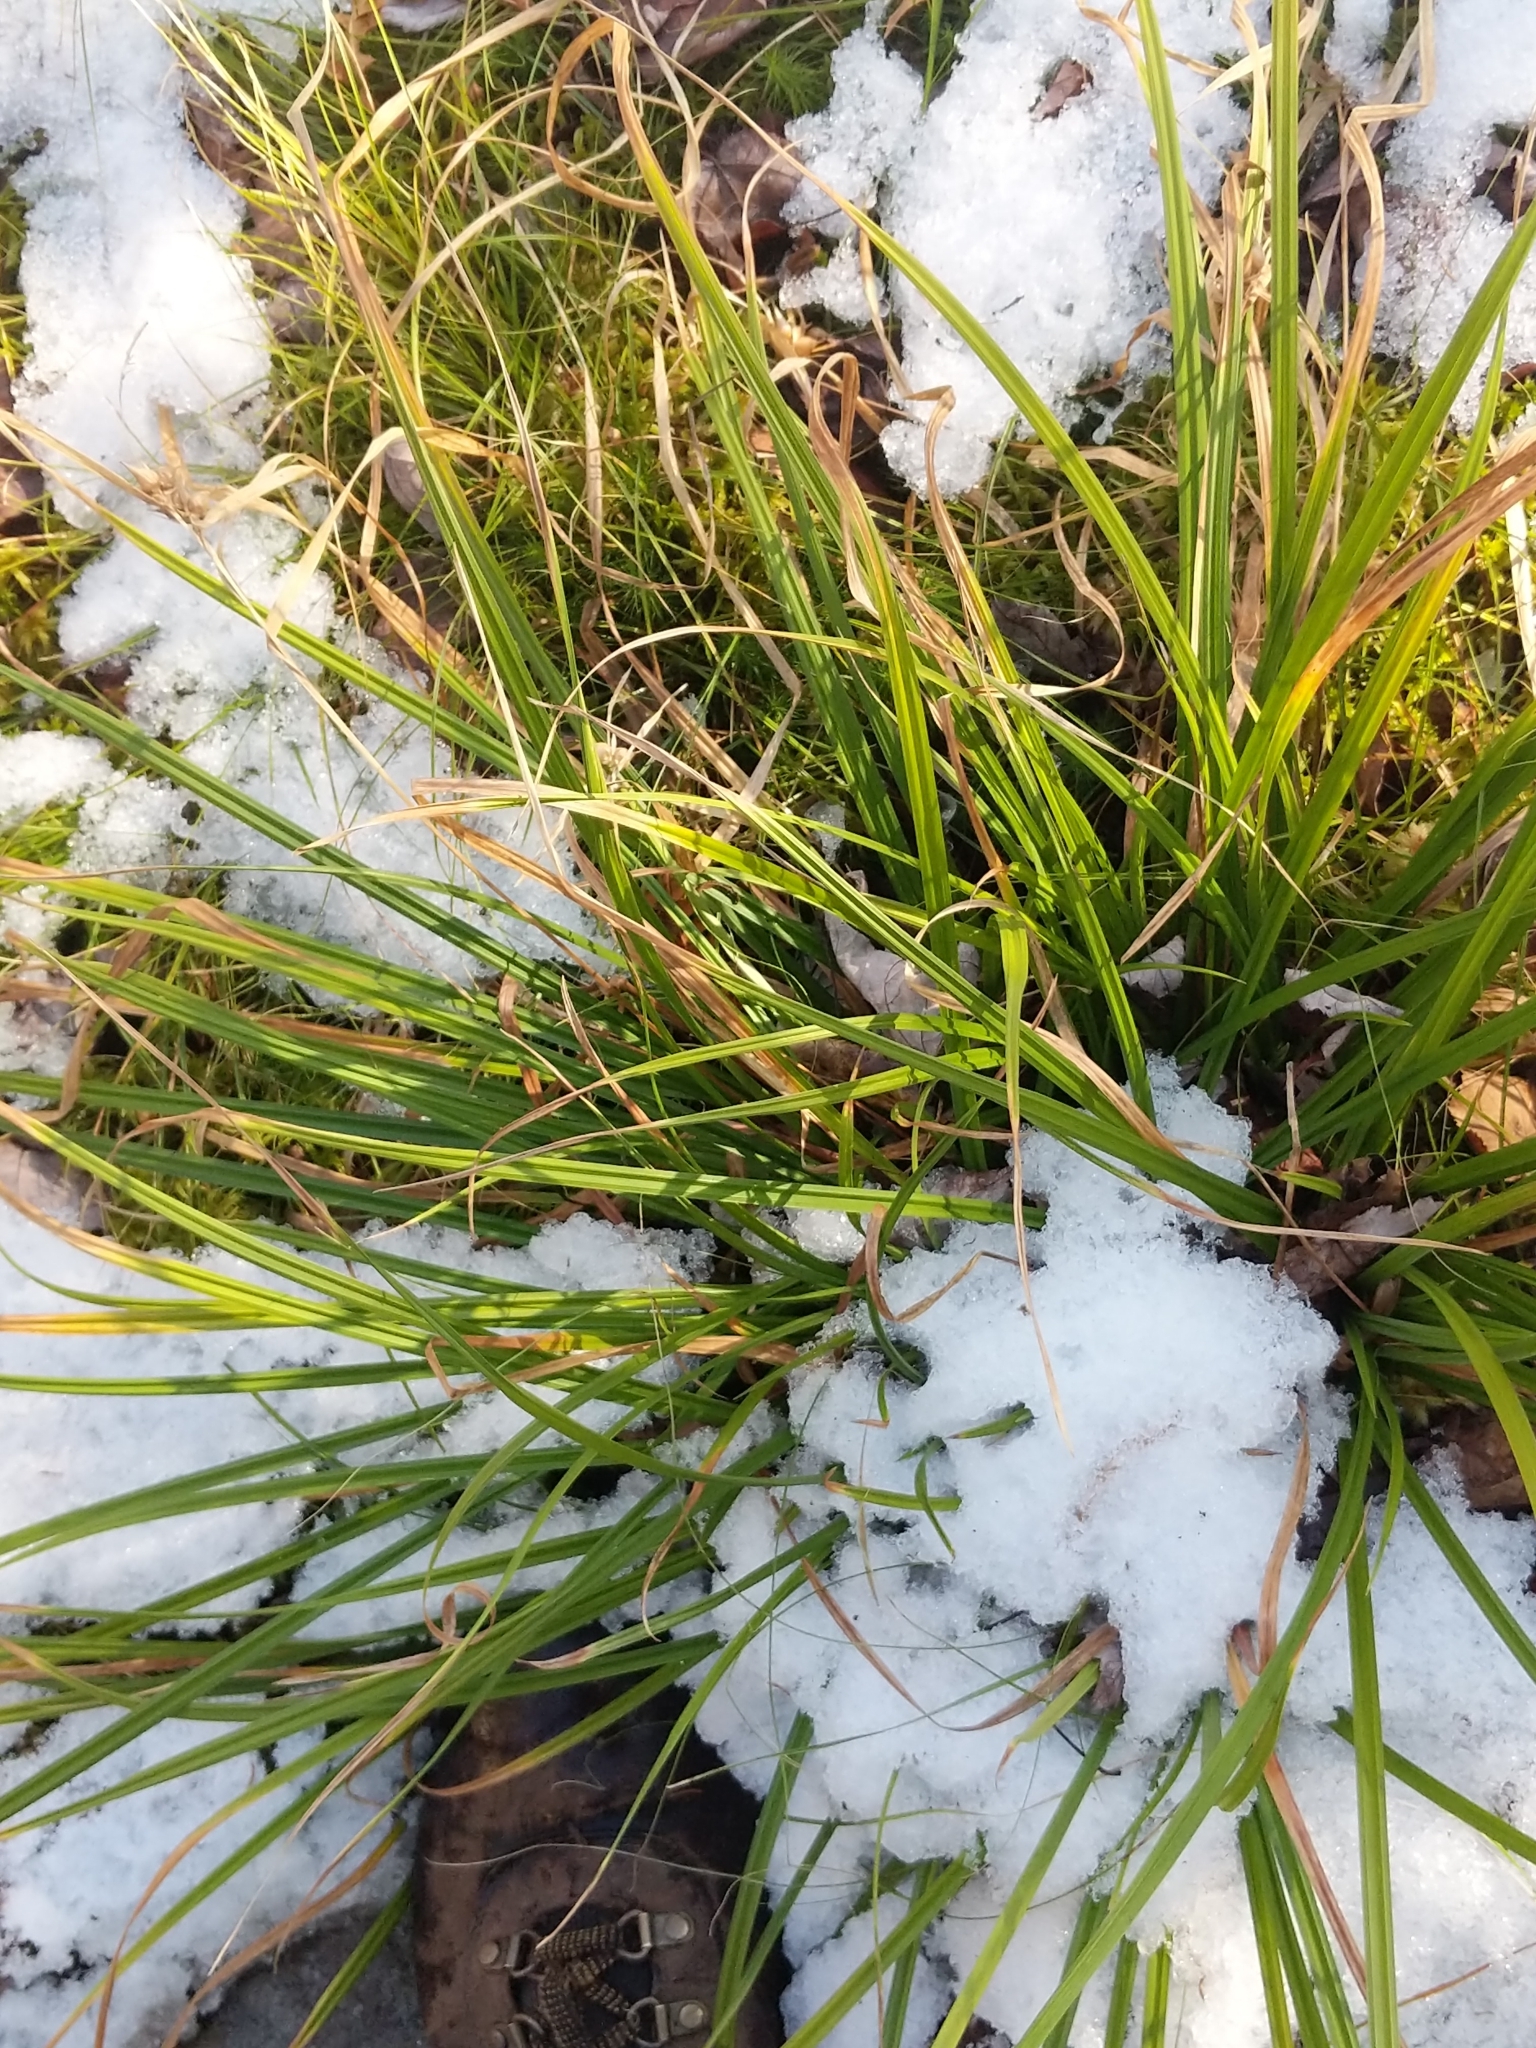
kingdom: Plantae
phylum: Tracheophyta
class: Liliopsida
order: Poales
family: Cyperaceae
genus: Carex
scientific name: Carex intumescens
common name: Greater bladder sedge
